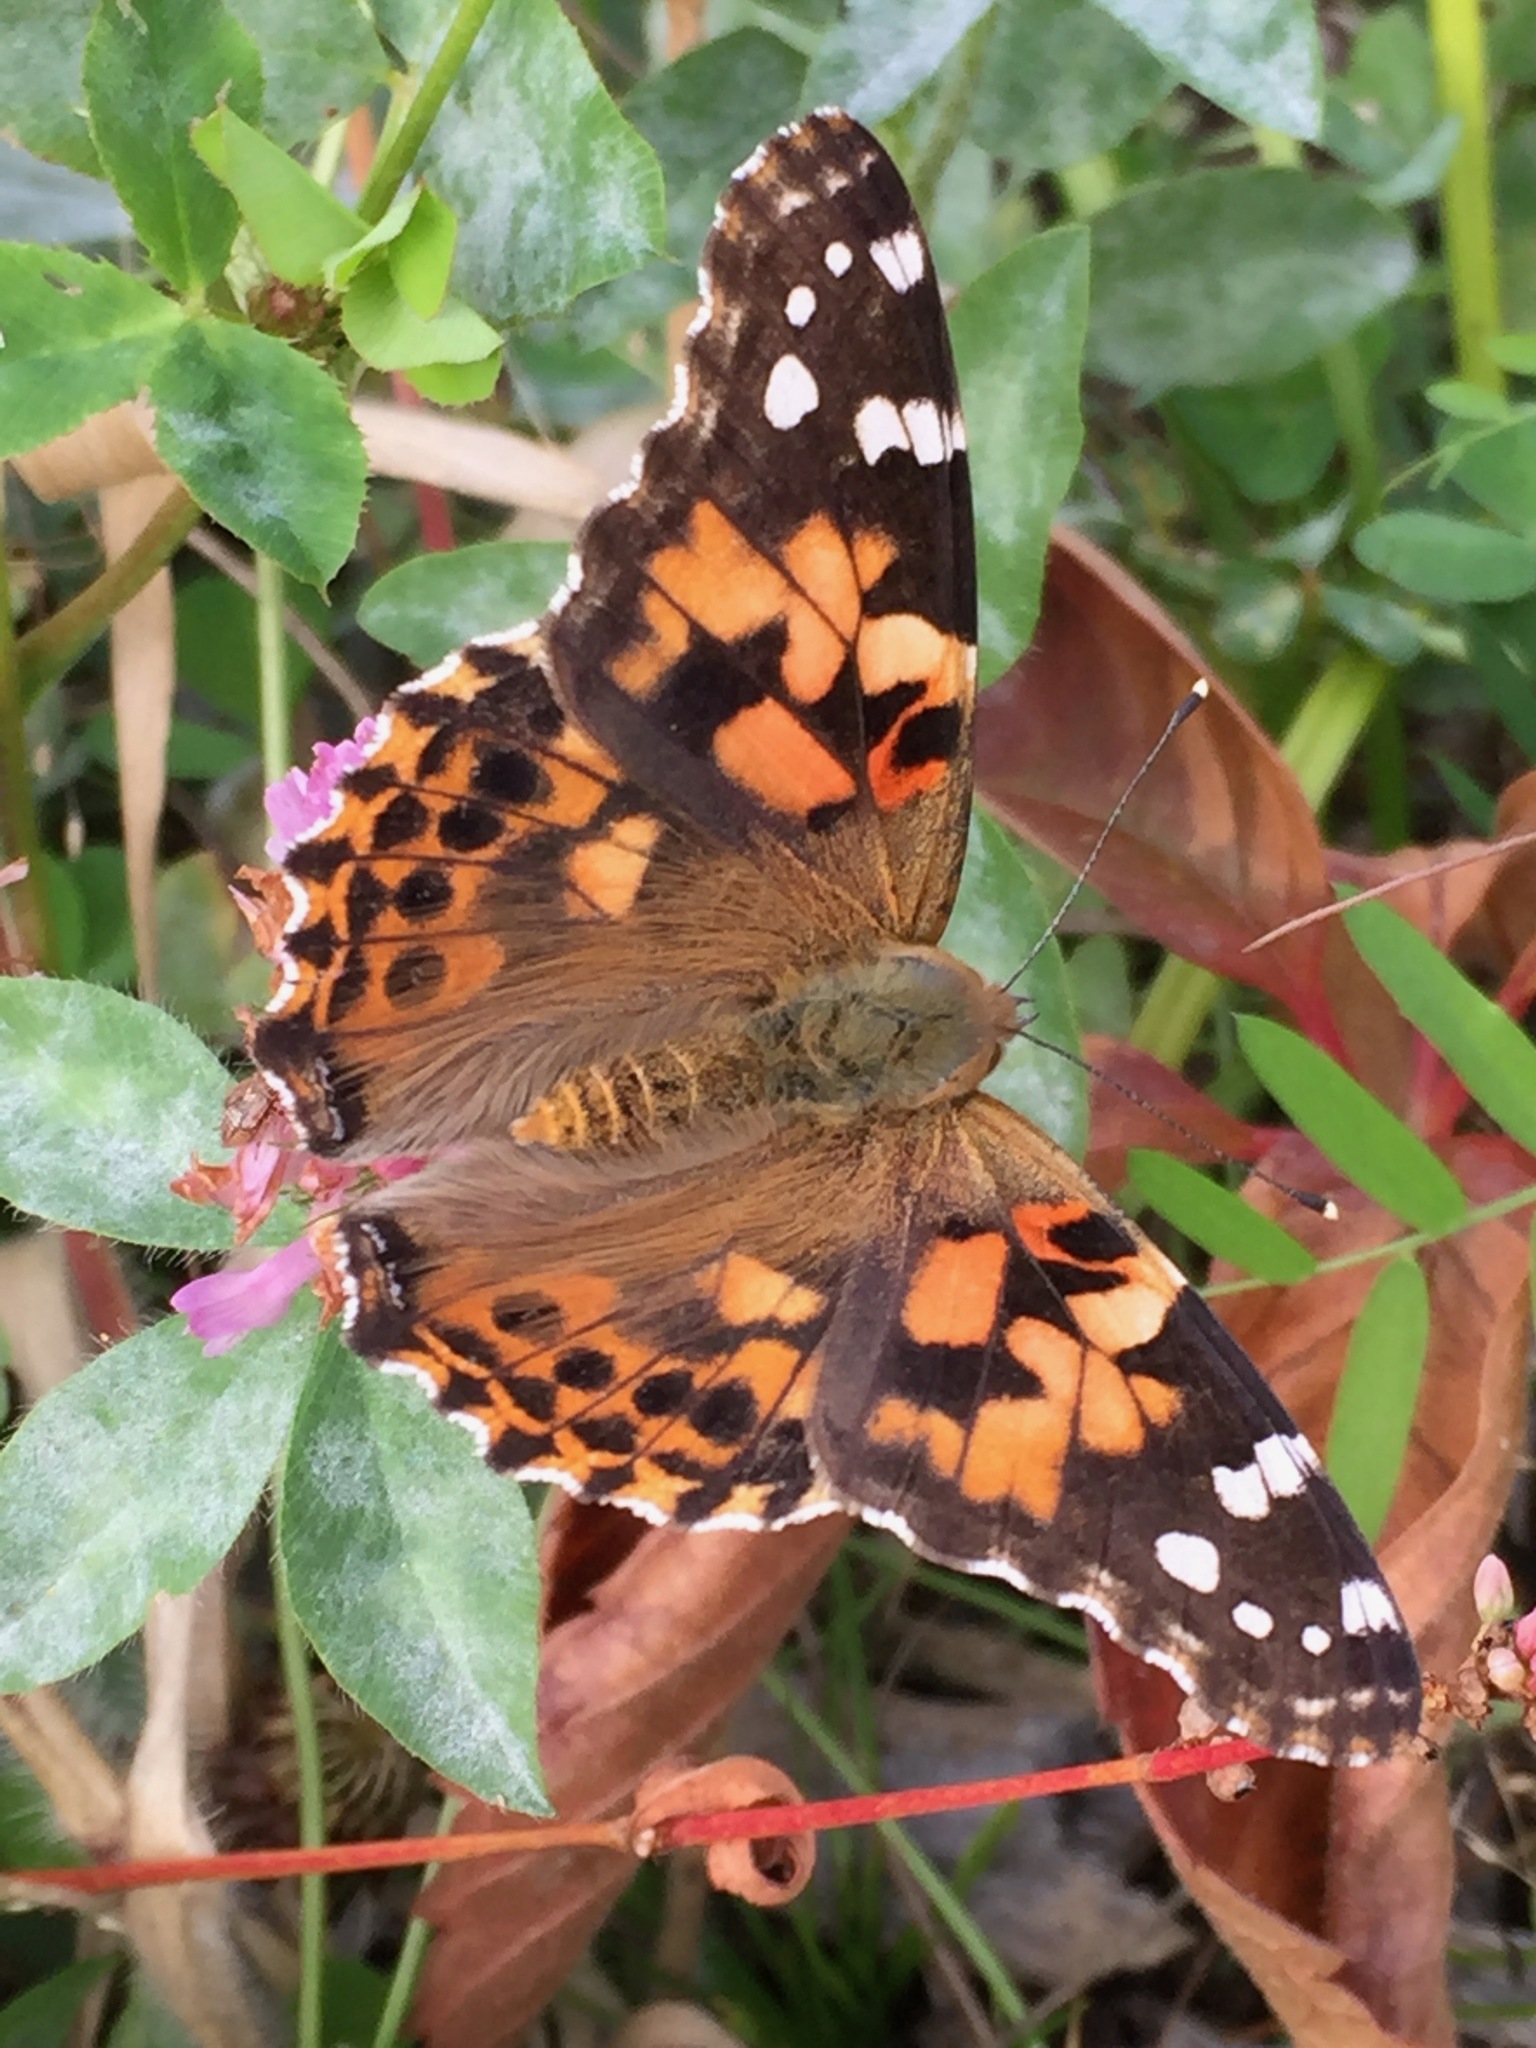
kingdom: Animalia
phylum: Arthropoda
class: Insecta
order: Lepidoptera
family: Nymphalidae
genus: Vanessa
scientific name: Vanessa cardui
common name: Painted lady
